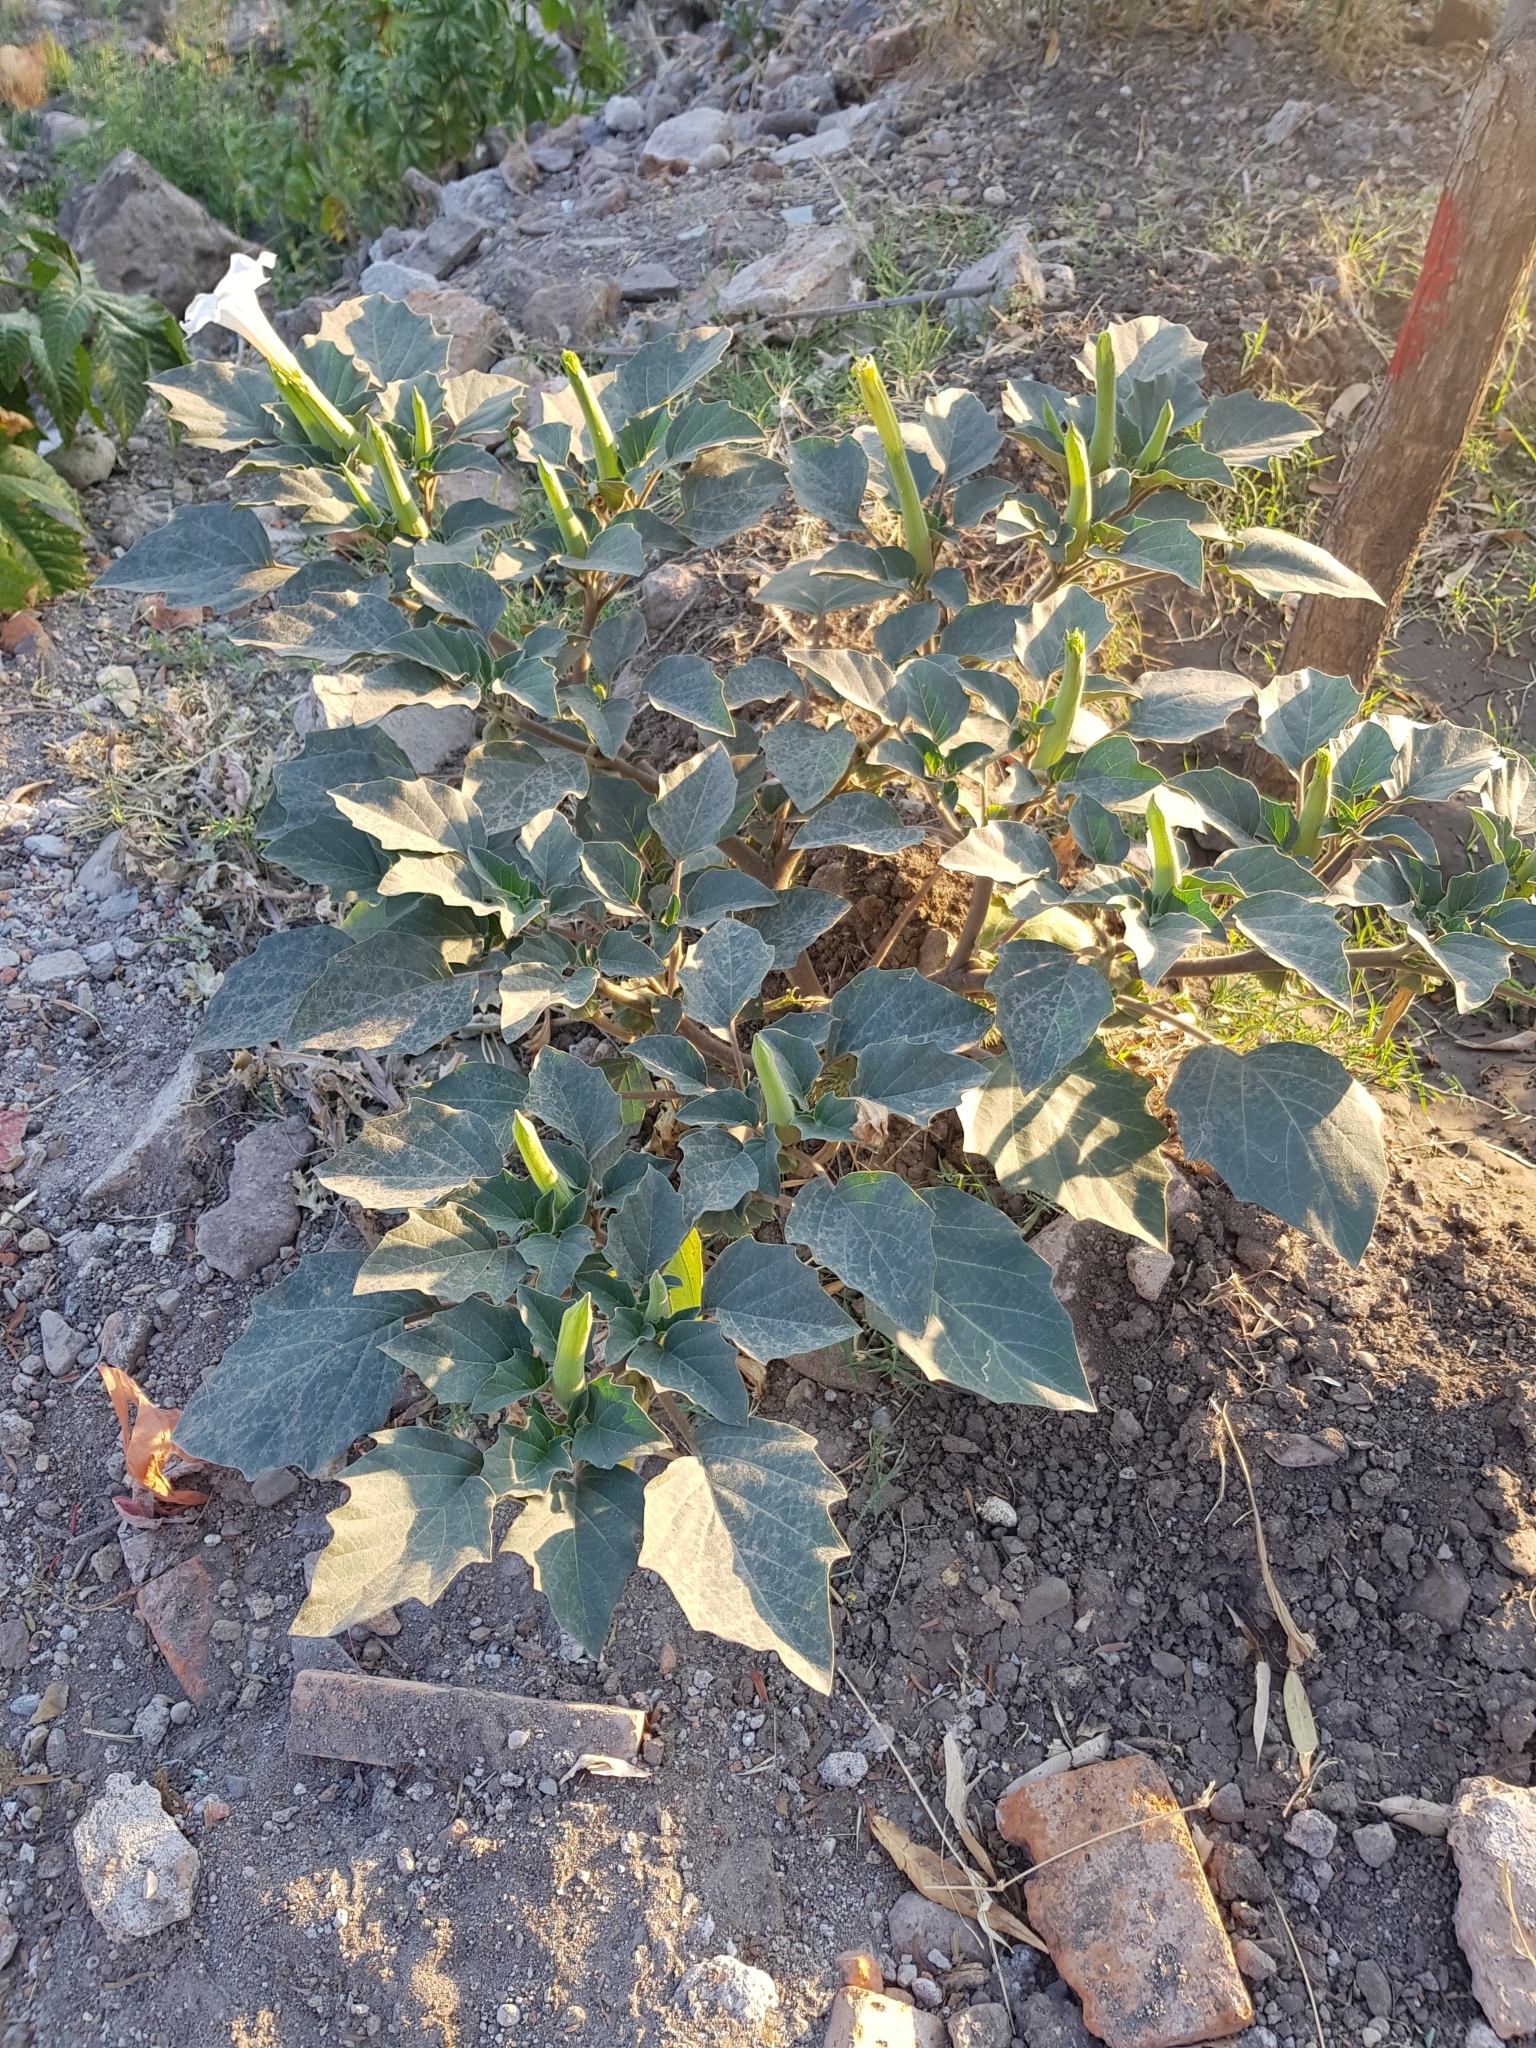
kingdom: Plantae
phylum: Tracheophyta
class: Magnoliopsida
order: Solanales
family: Solanaceae
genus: Datura
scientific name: Datura innoxia
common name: Downy thorn-apple
